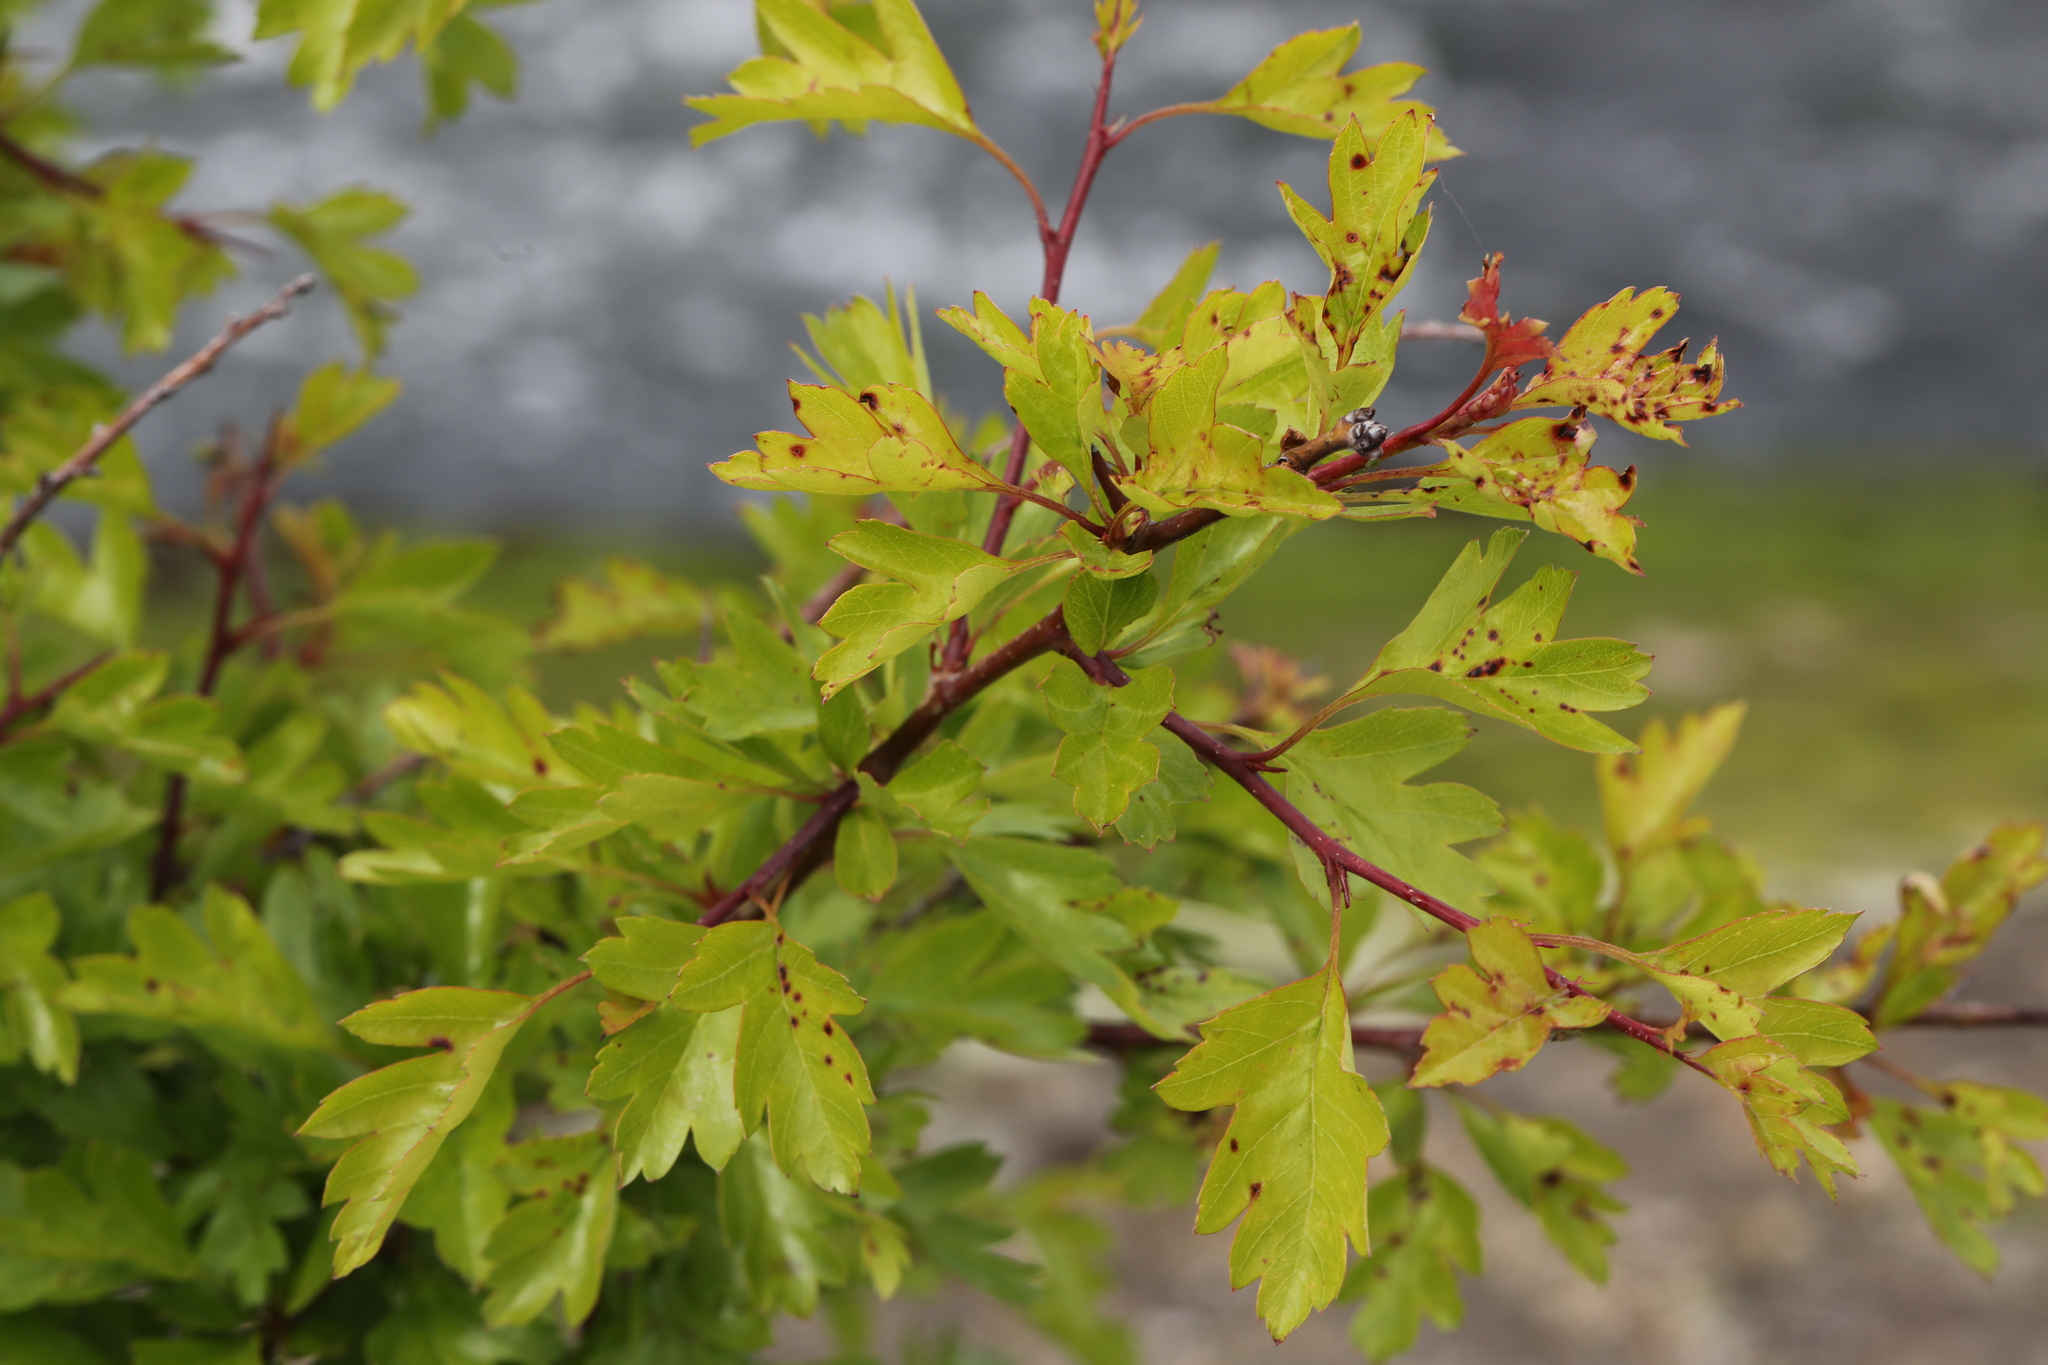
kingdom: Plantae
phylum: Tracheophyta
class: Magnoliopsida
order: Rosales
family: Rosaceae
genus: Crataegus
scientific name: Crataegus monogyna
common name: Hawthorn
